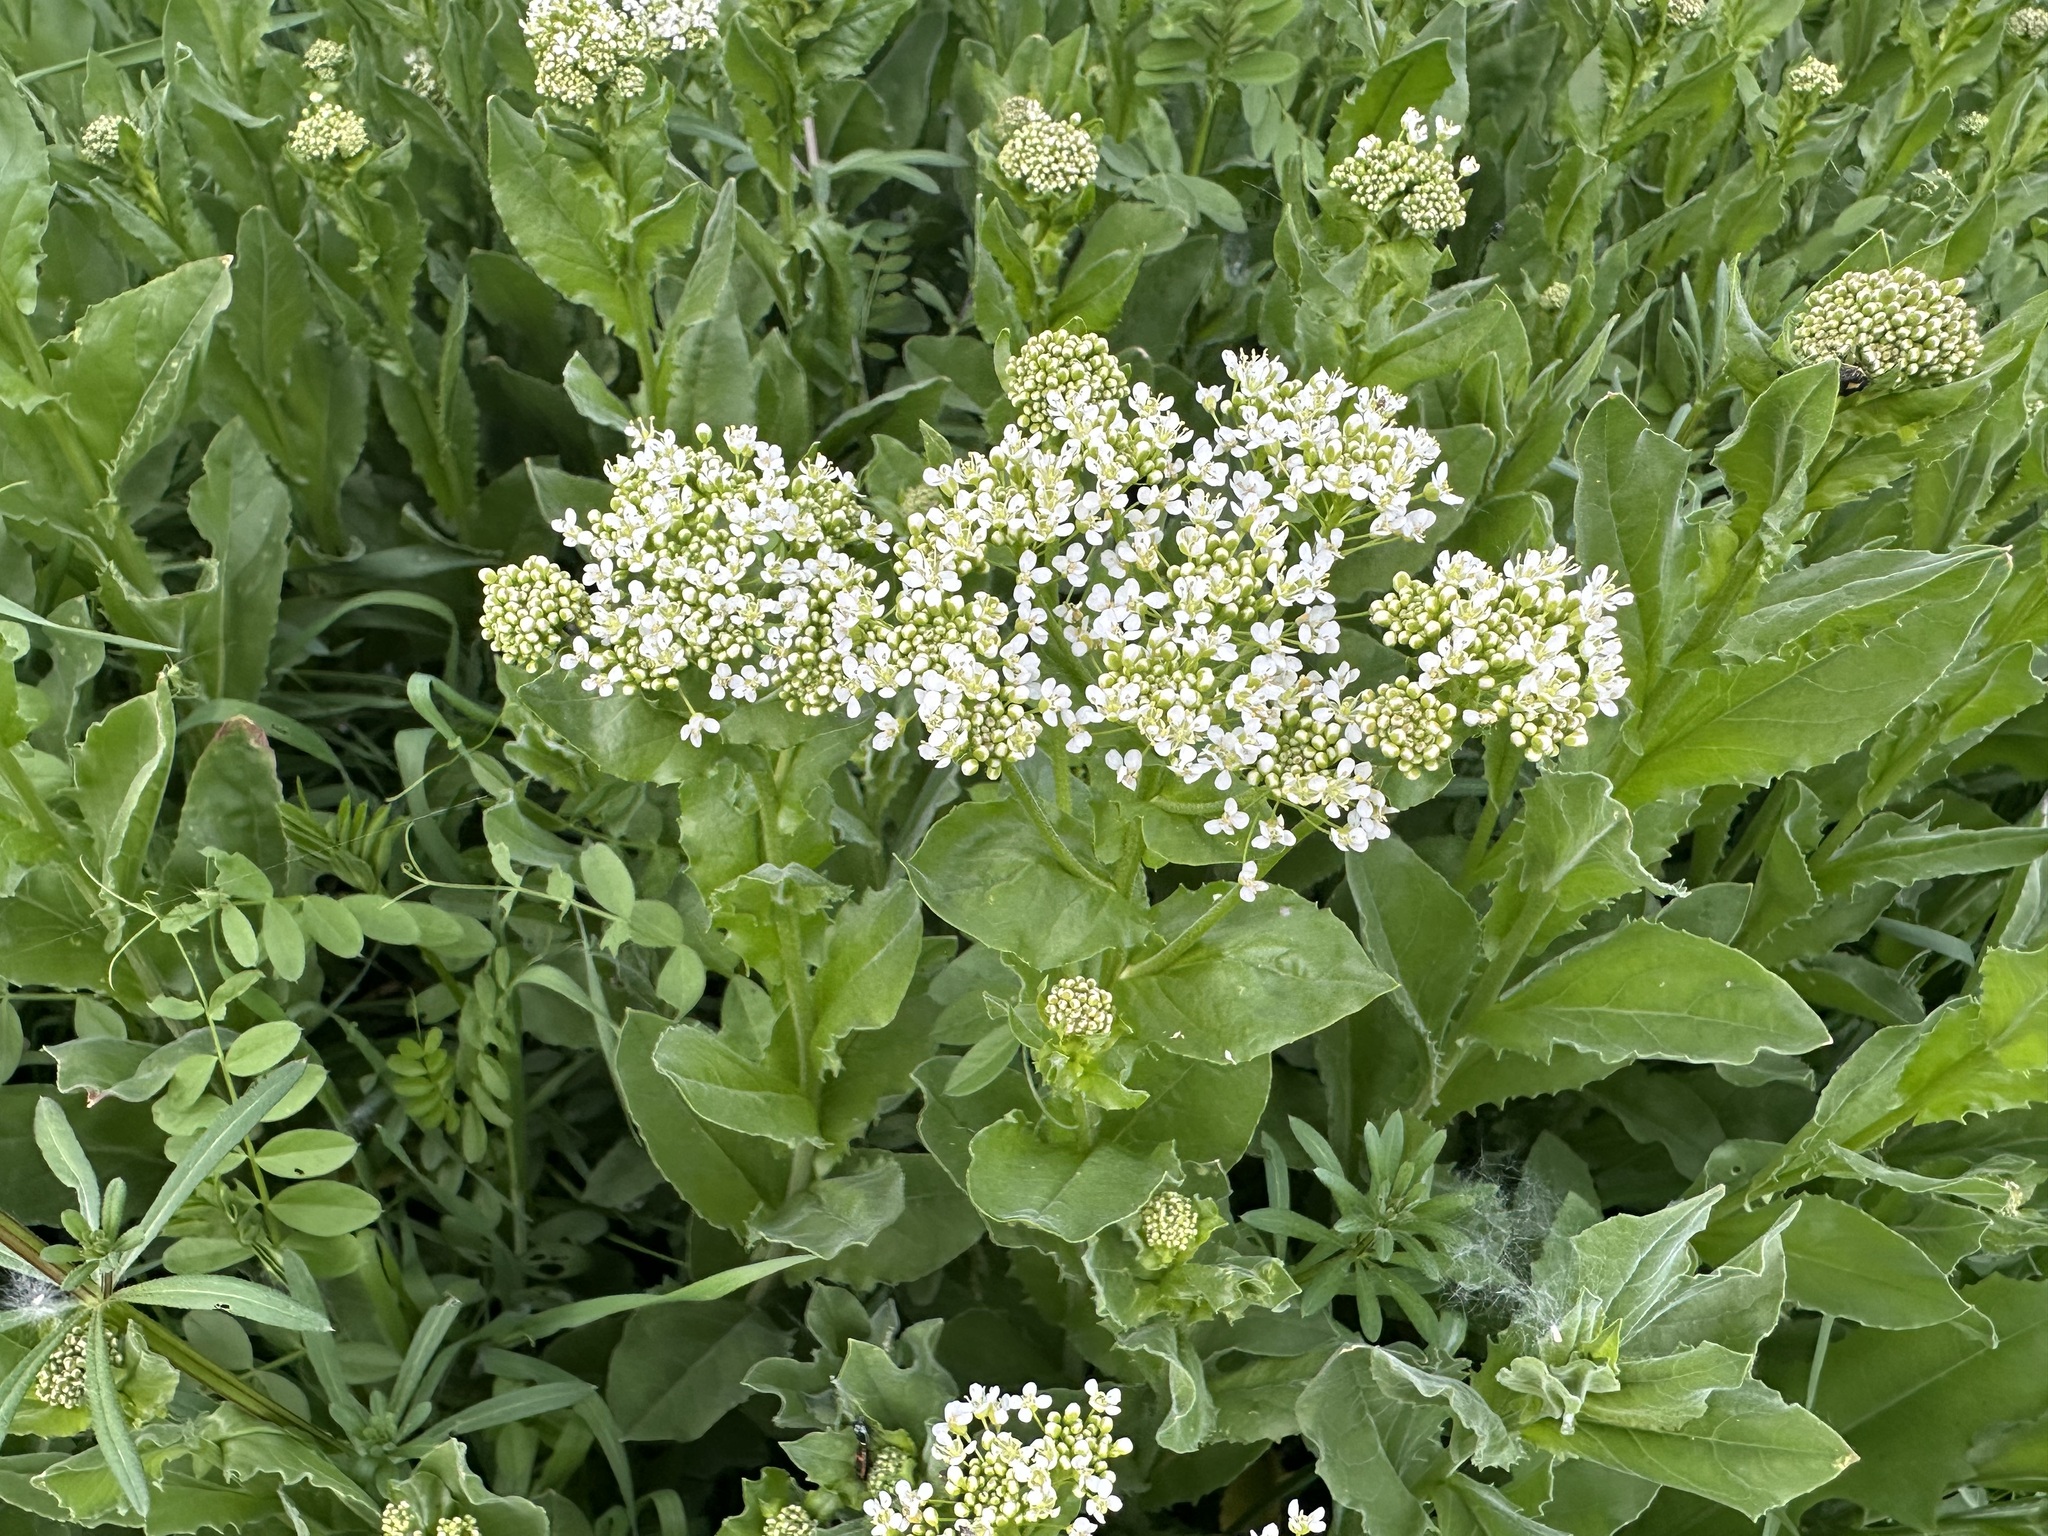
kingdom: Plantae
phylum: Tracheophyta
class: Magnoliopsida
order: Brassicales
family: Brassicaceae
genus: Lepidium
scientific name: Lepidium draba
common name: Hoary cress
